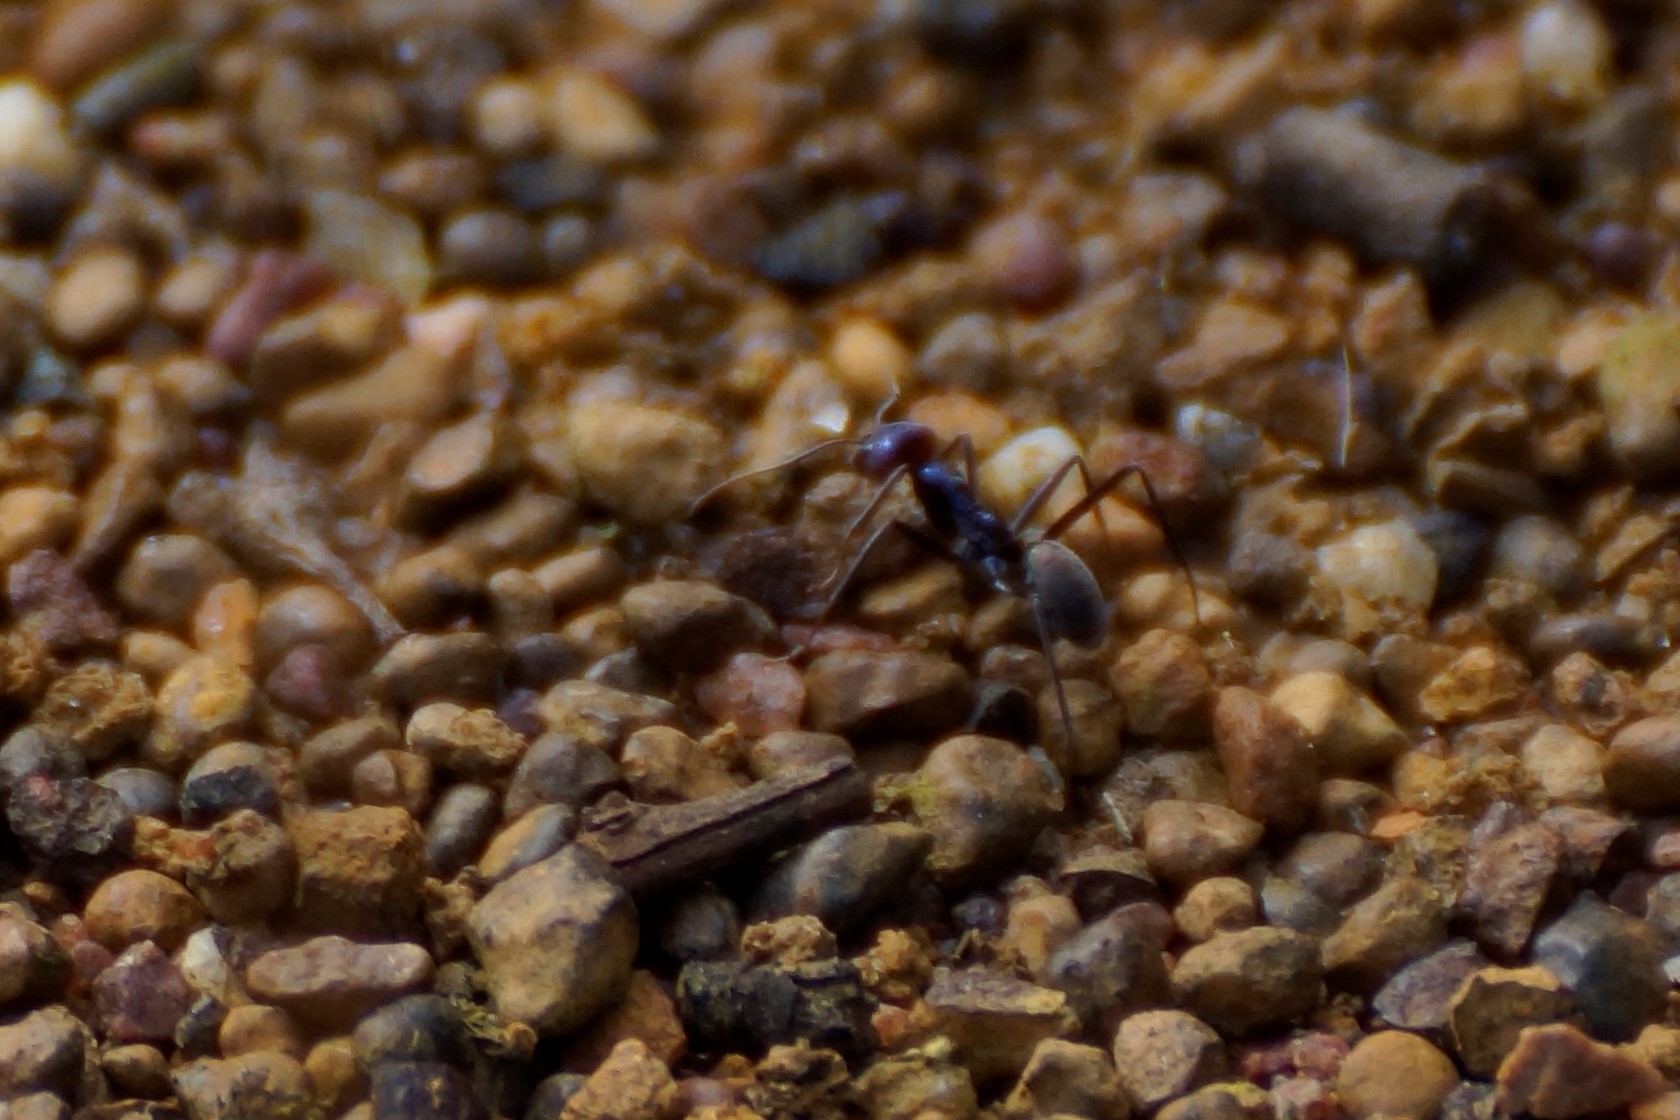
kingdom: Animalia
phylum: Arthropoda
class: Insecta
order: Hymenoptera
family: Formicidae
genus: Iridomyrmex
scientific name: Iridomyrmex purpureus
